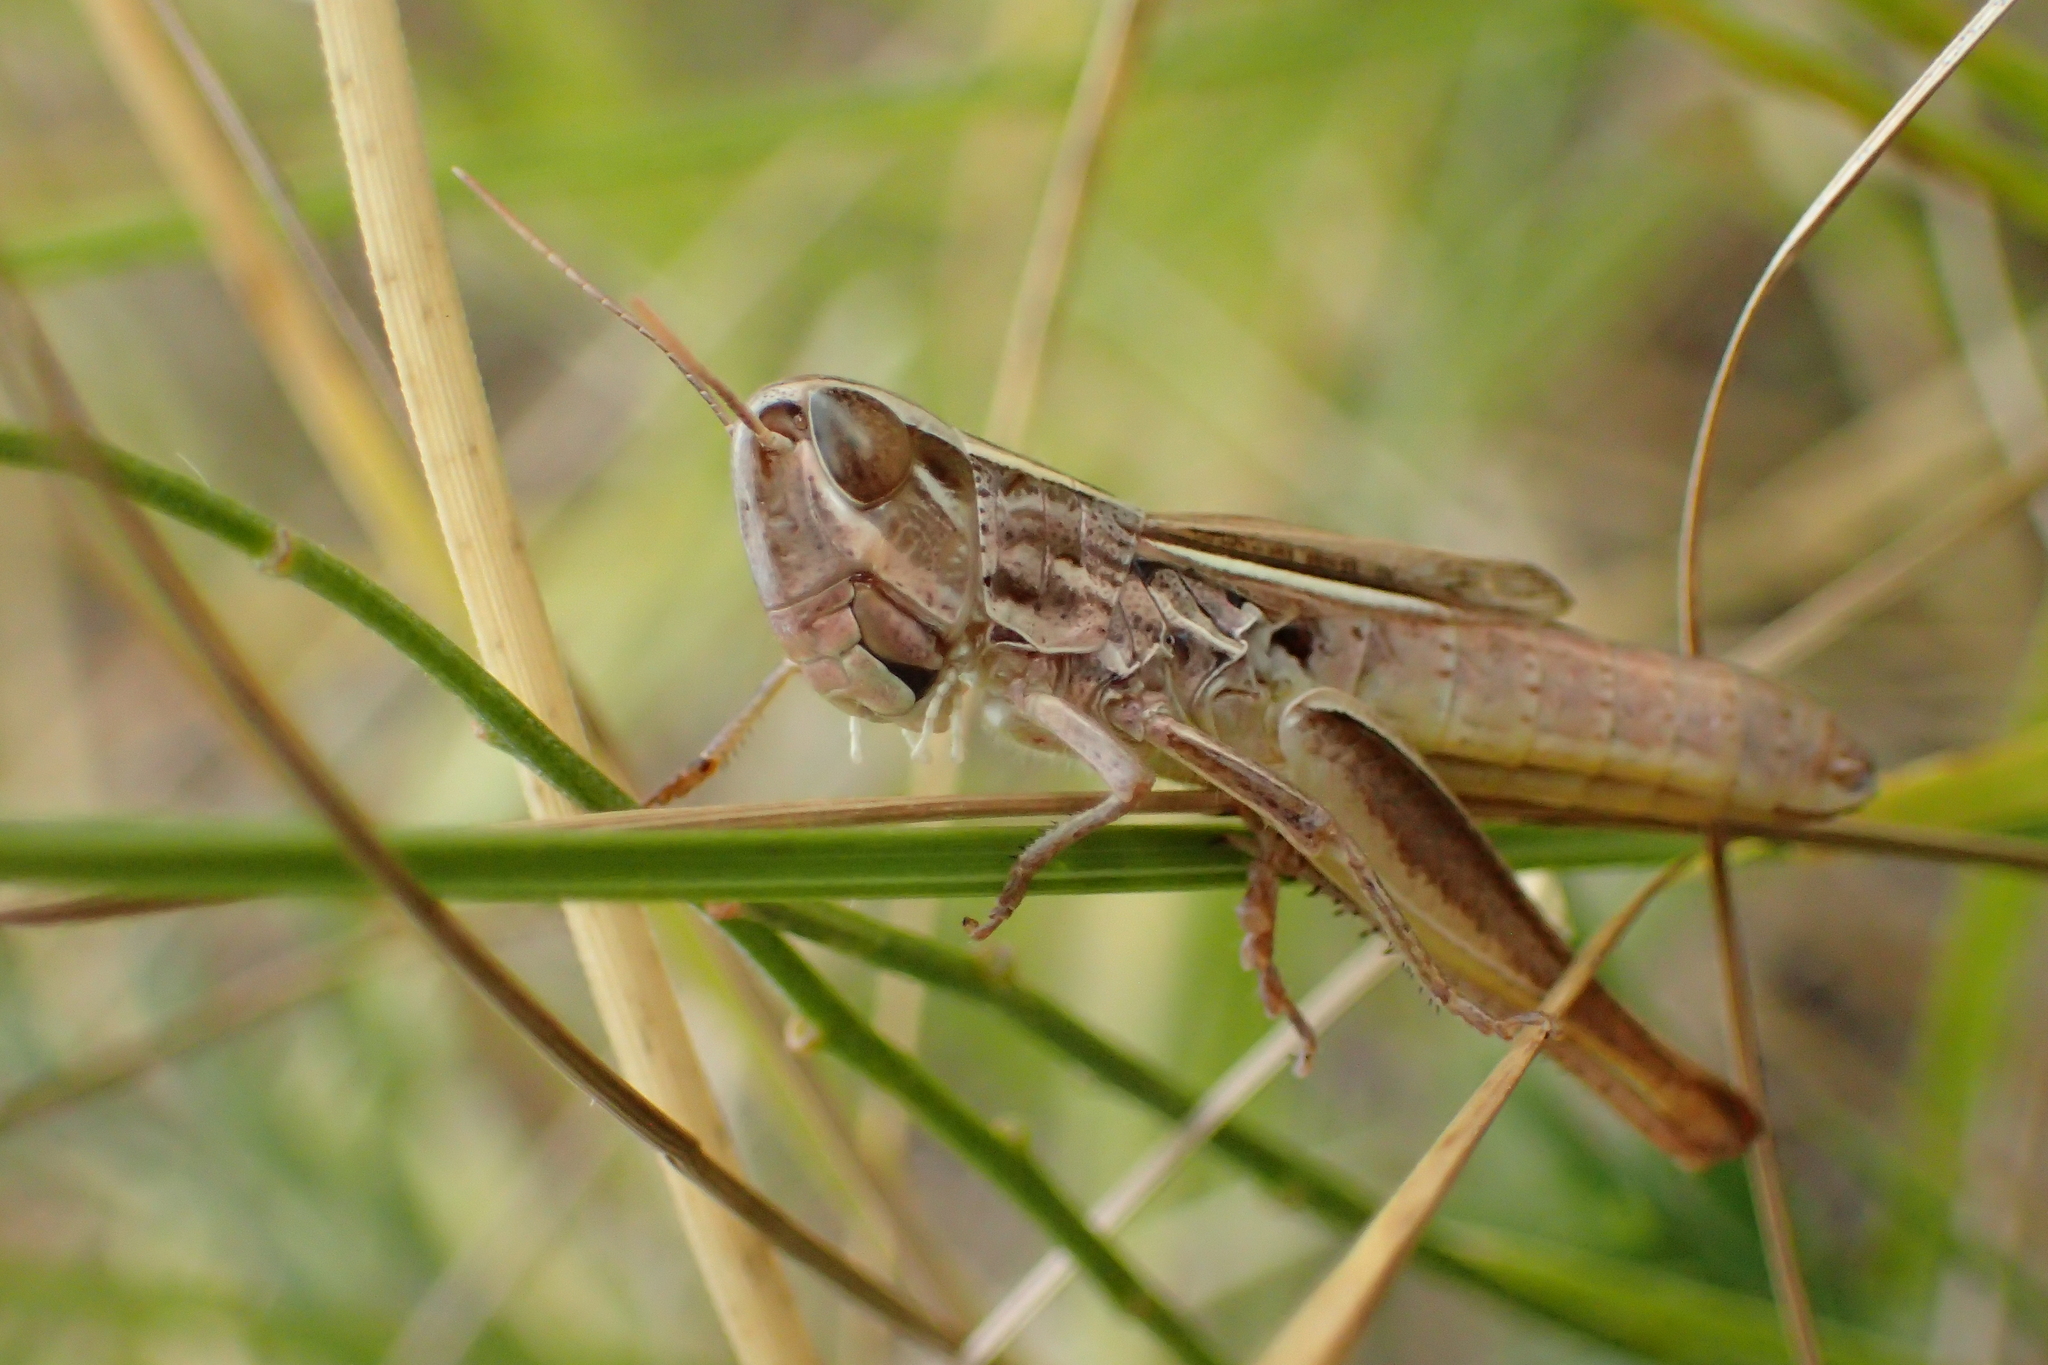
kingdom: Animalia
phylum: Arthropoda
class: Insecta
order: Orthoptera
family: Acrididae
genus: Euchorthippus
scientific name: Euchorthippus declivus
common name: Common straw grasshopper
